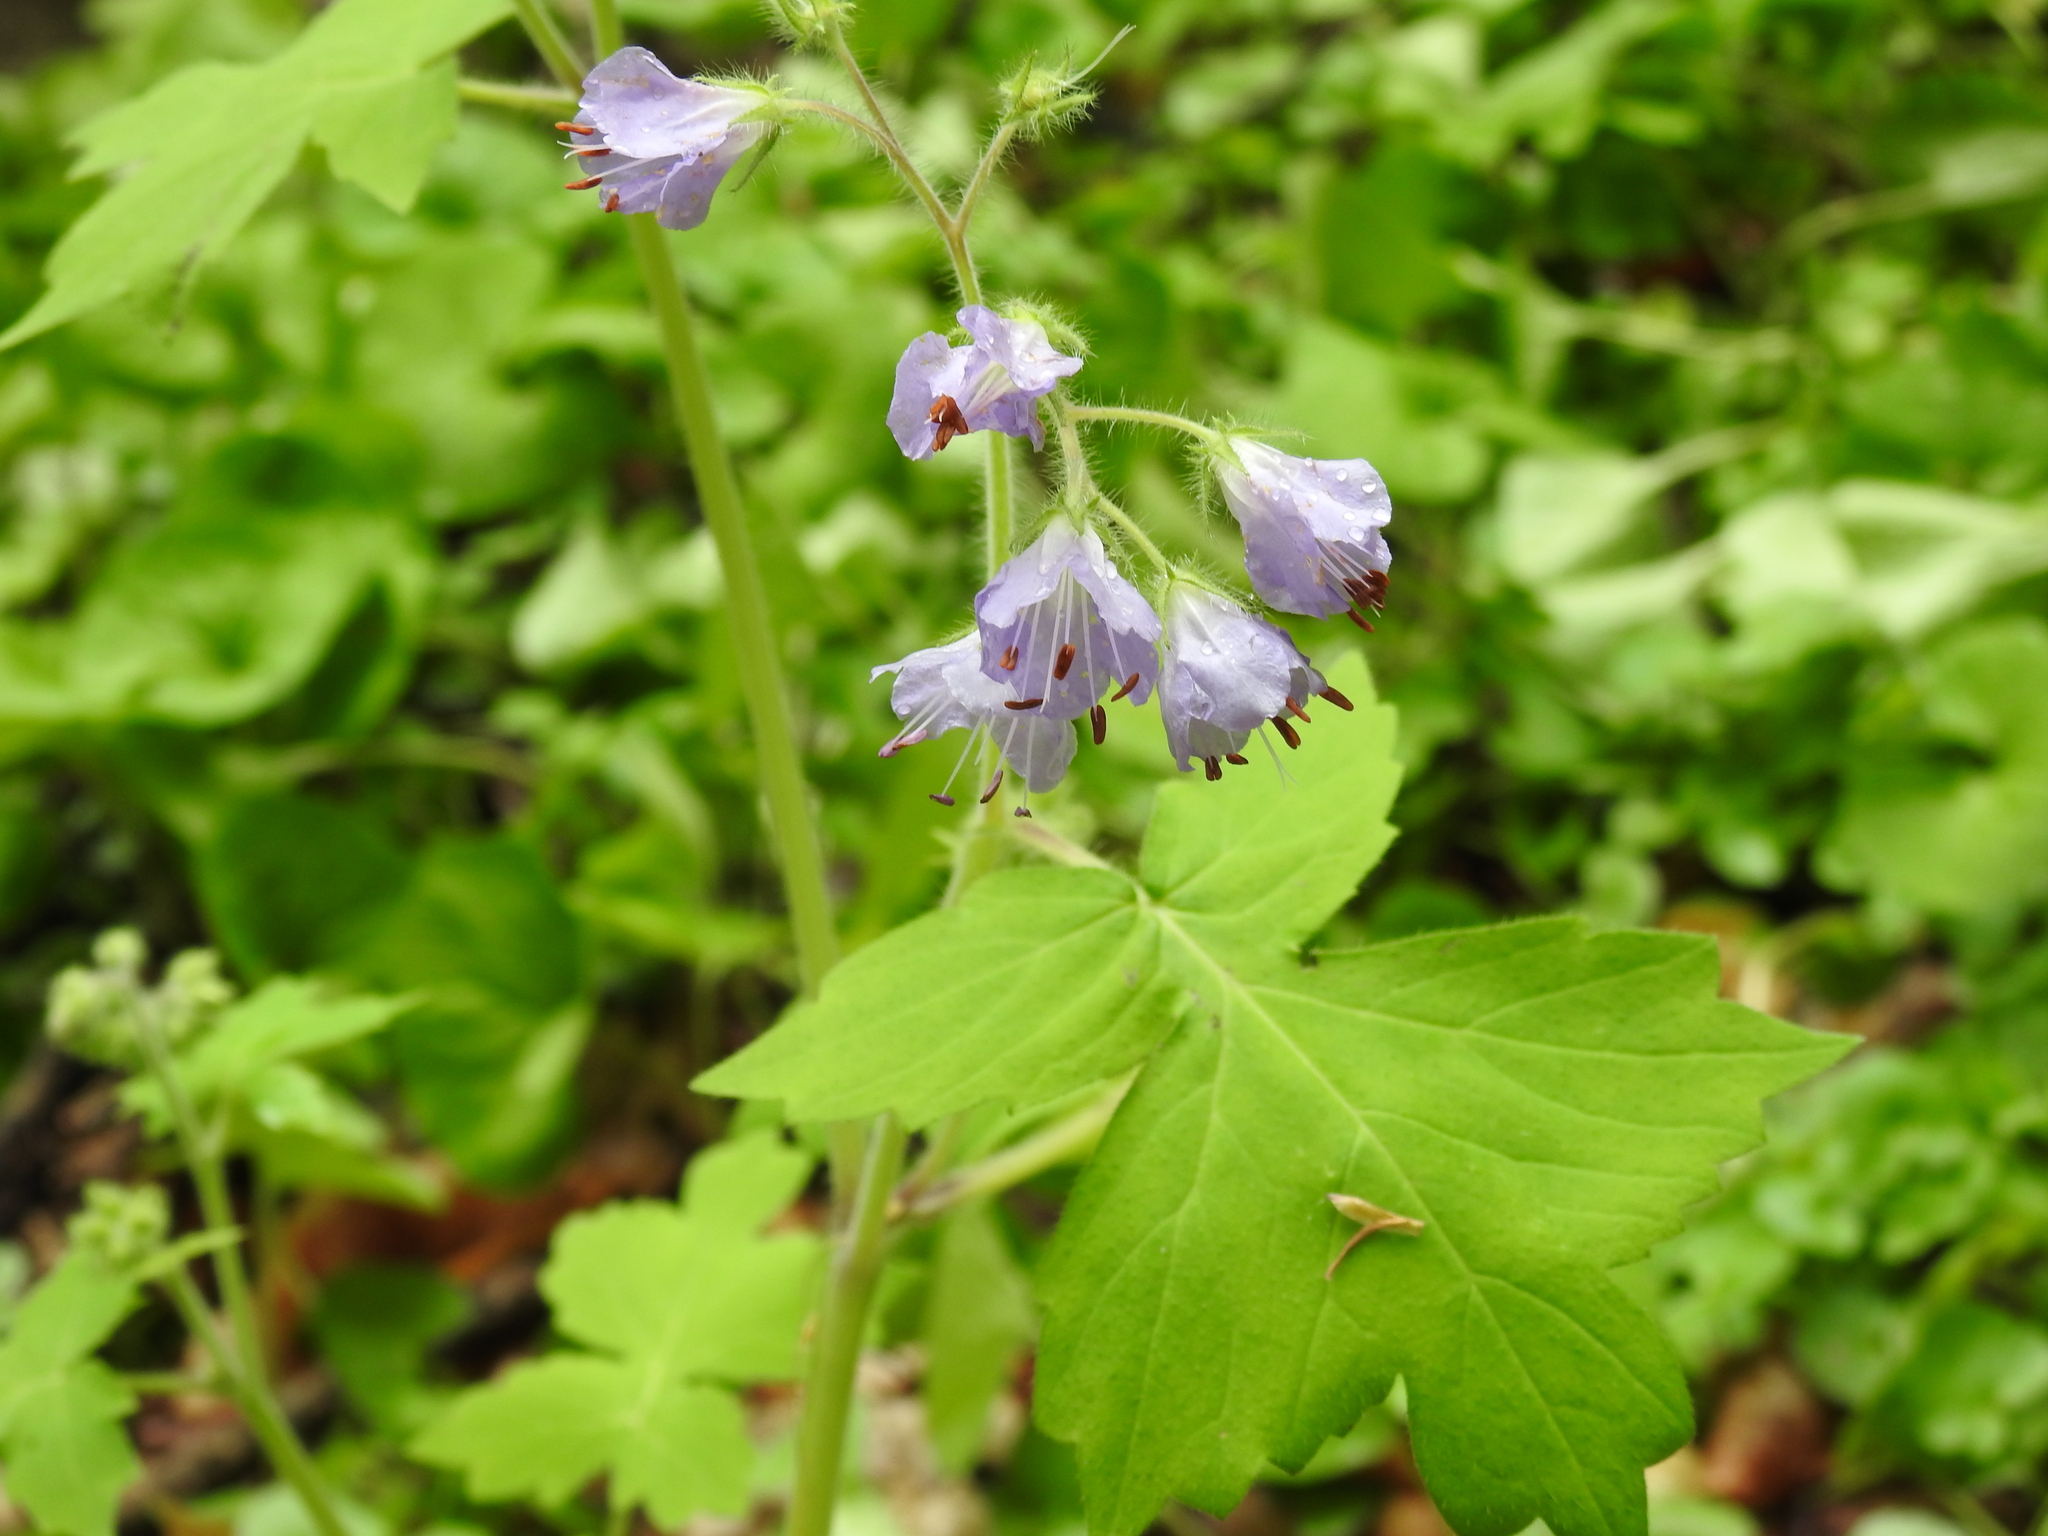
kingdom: Plantae
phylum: Tracheophyta
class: Magnoliopsida
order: Boraginales
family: Hydrophyllaceae
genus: Hydrophyllum
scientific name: Hydrophyllum appendiculatum
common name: Appendaged waterleaf
